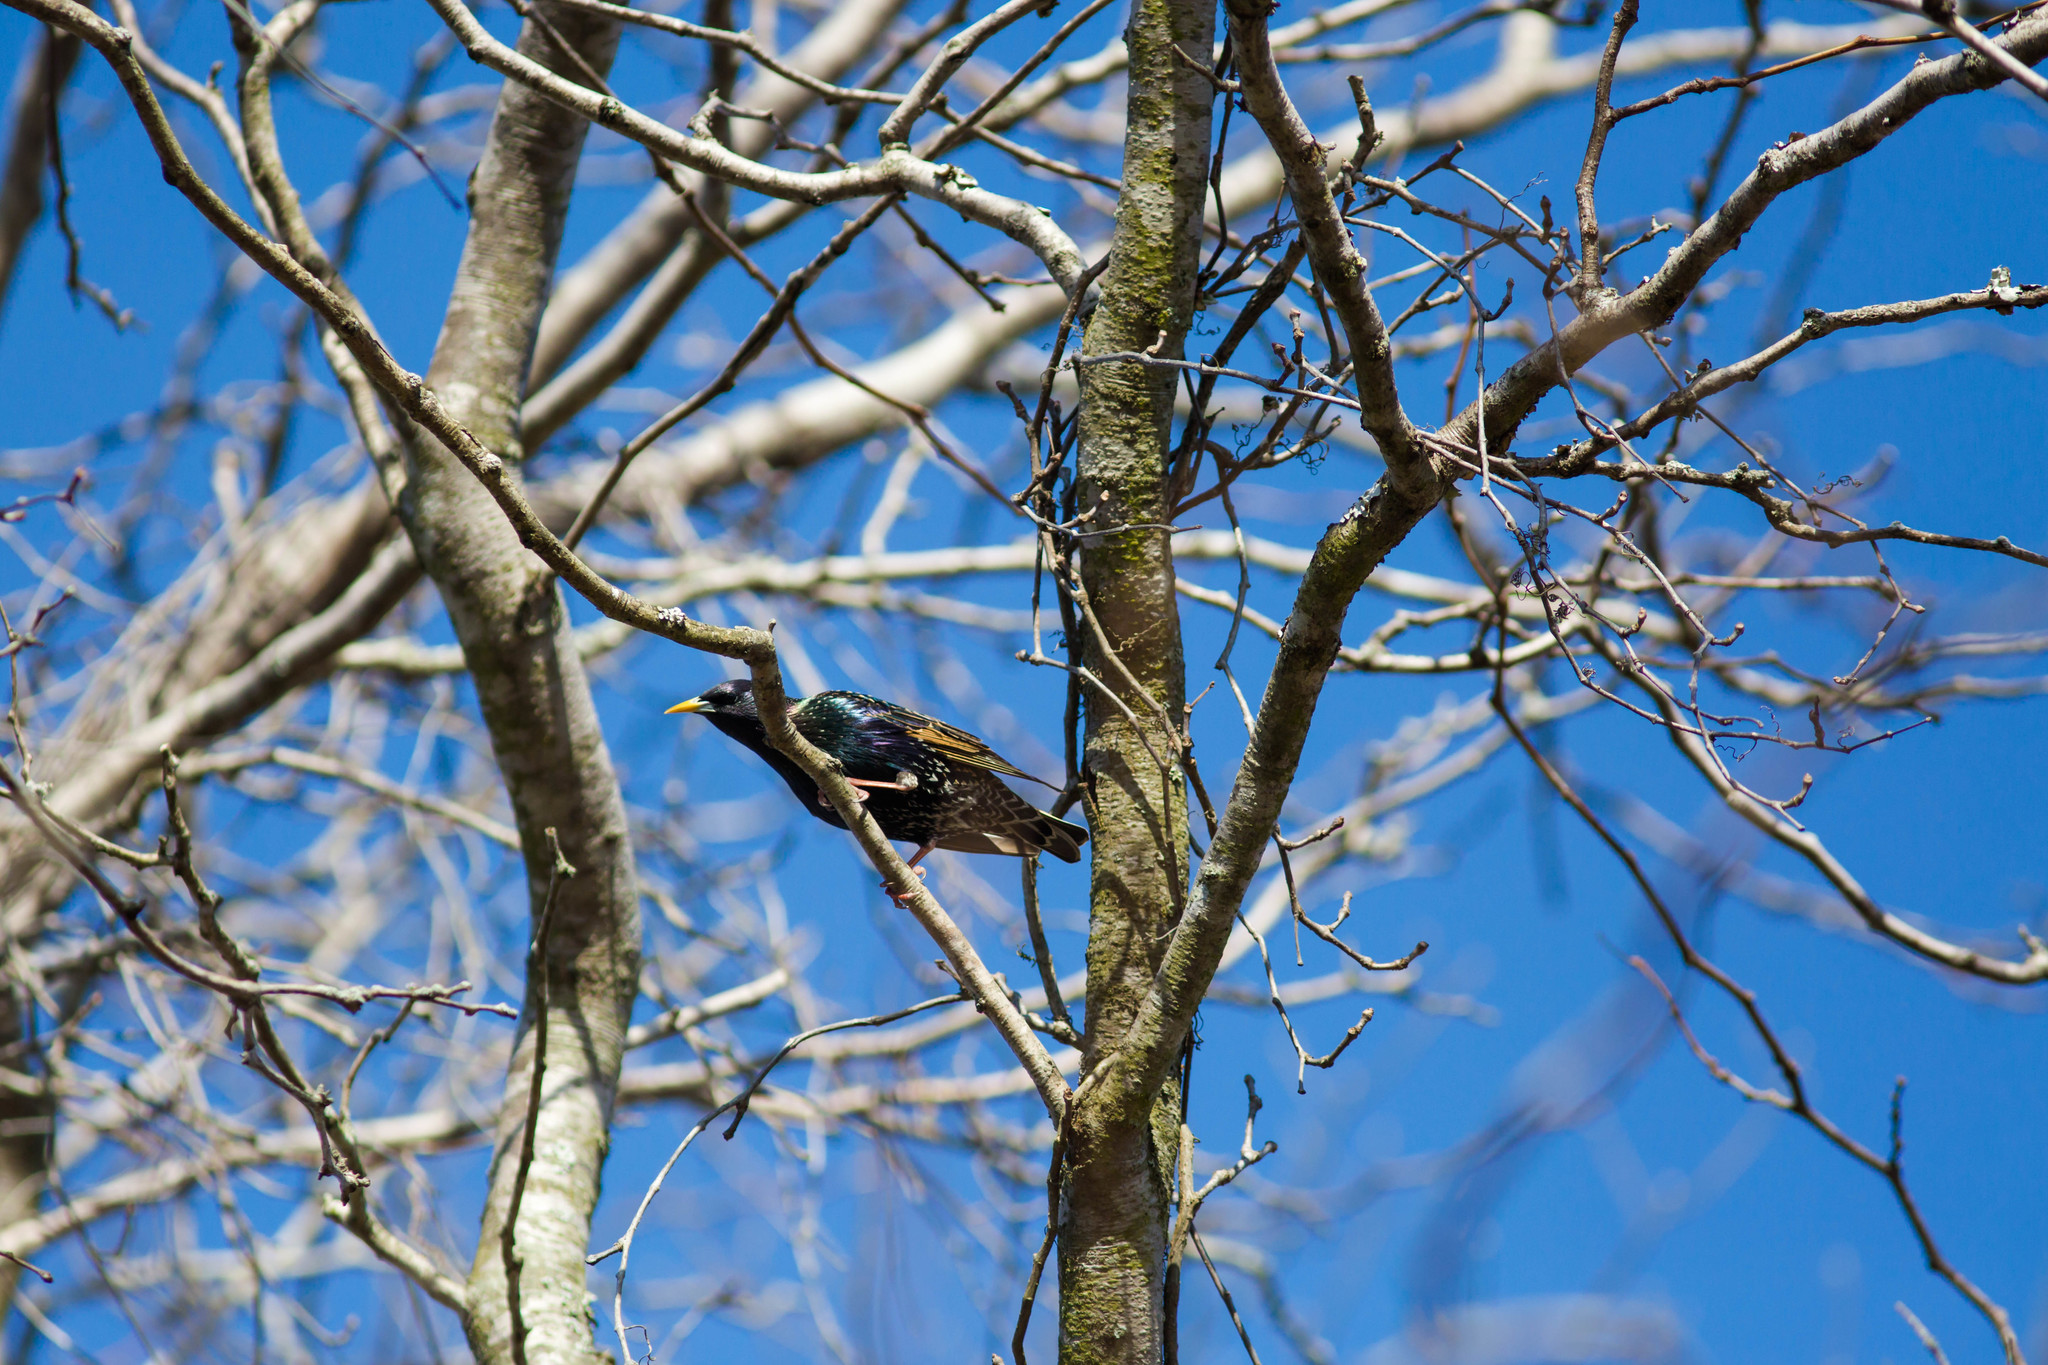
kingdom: Animalia
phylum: Chordata
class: Aves
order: Passeriformes
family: Sturnidae
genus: Sturnus
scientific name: Sturnus vulgaris
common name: Common starling
